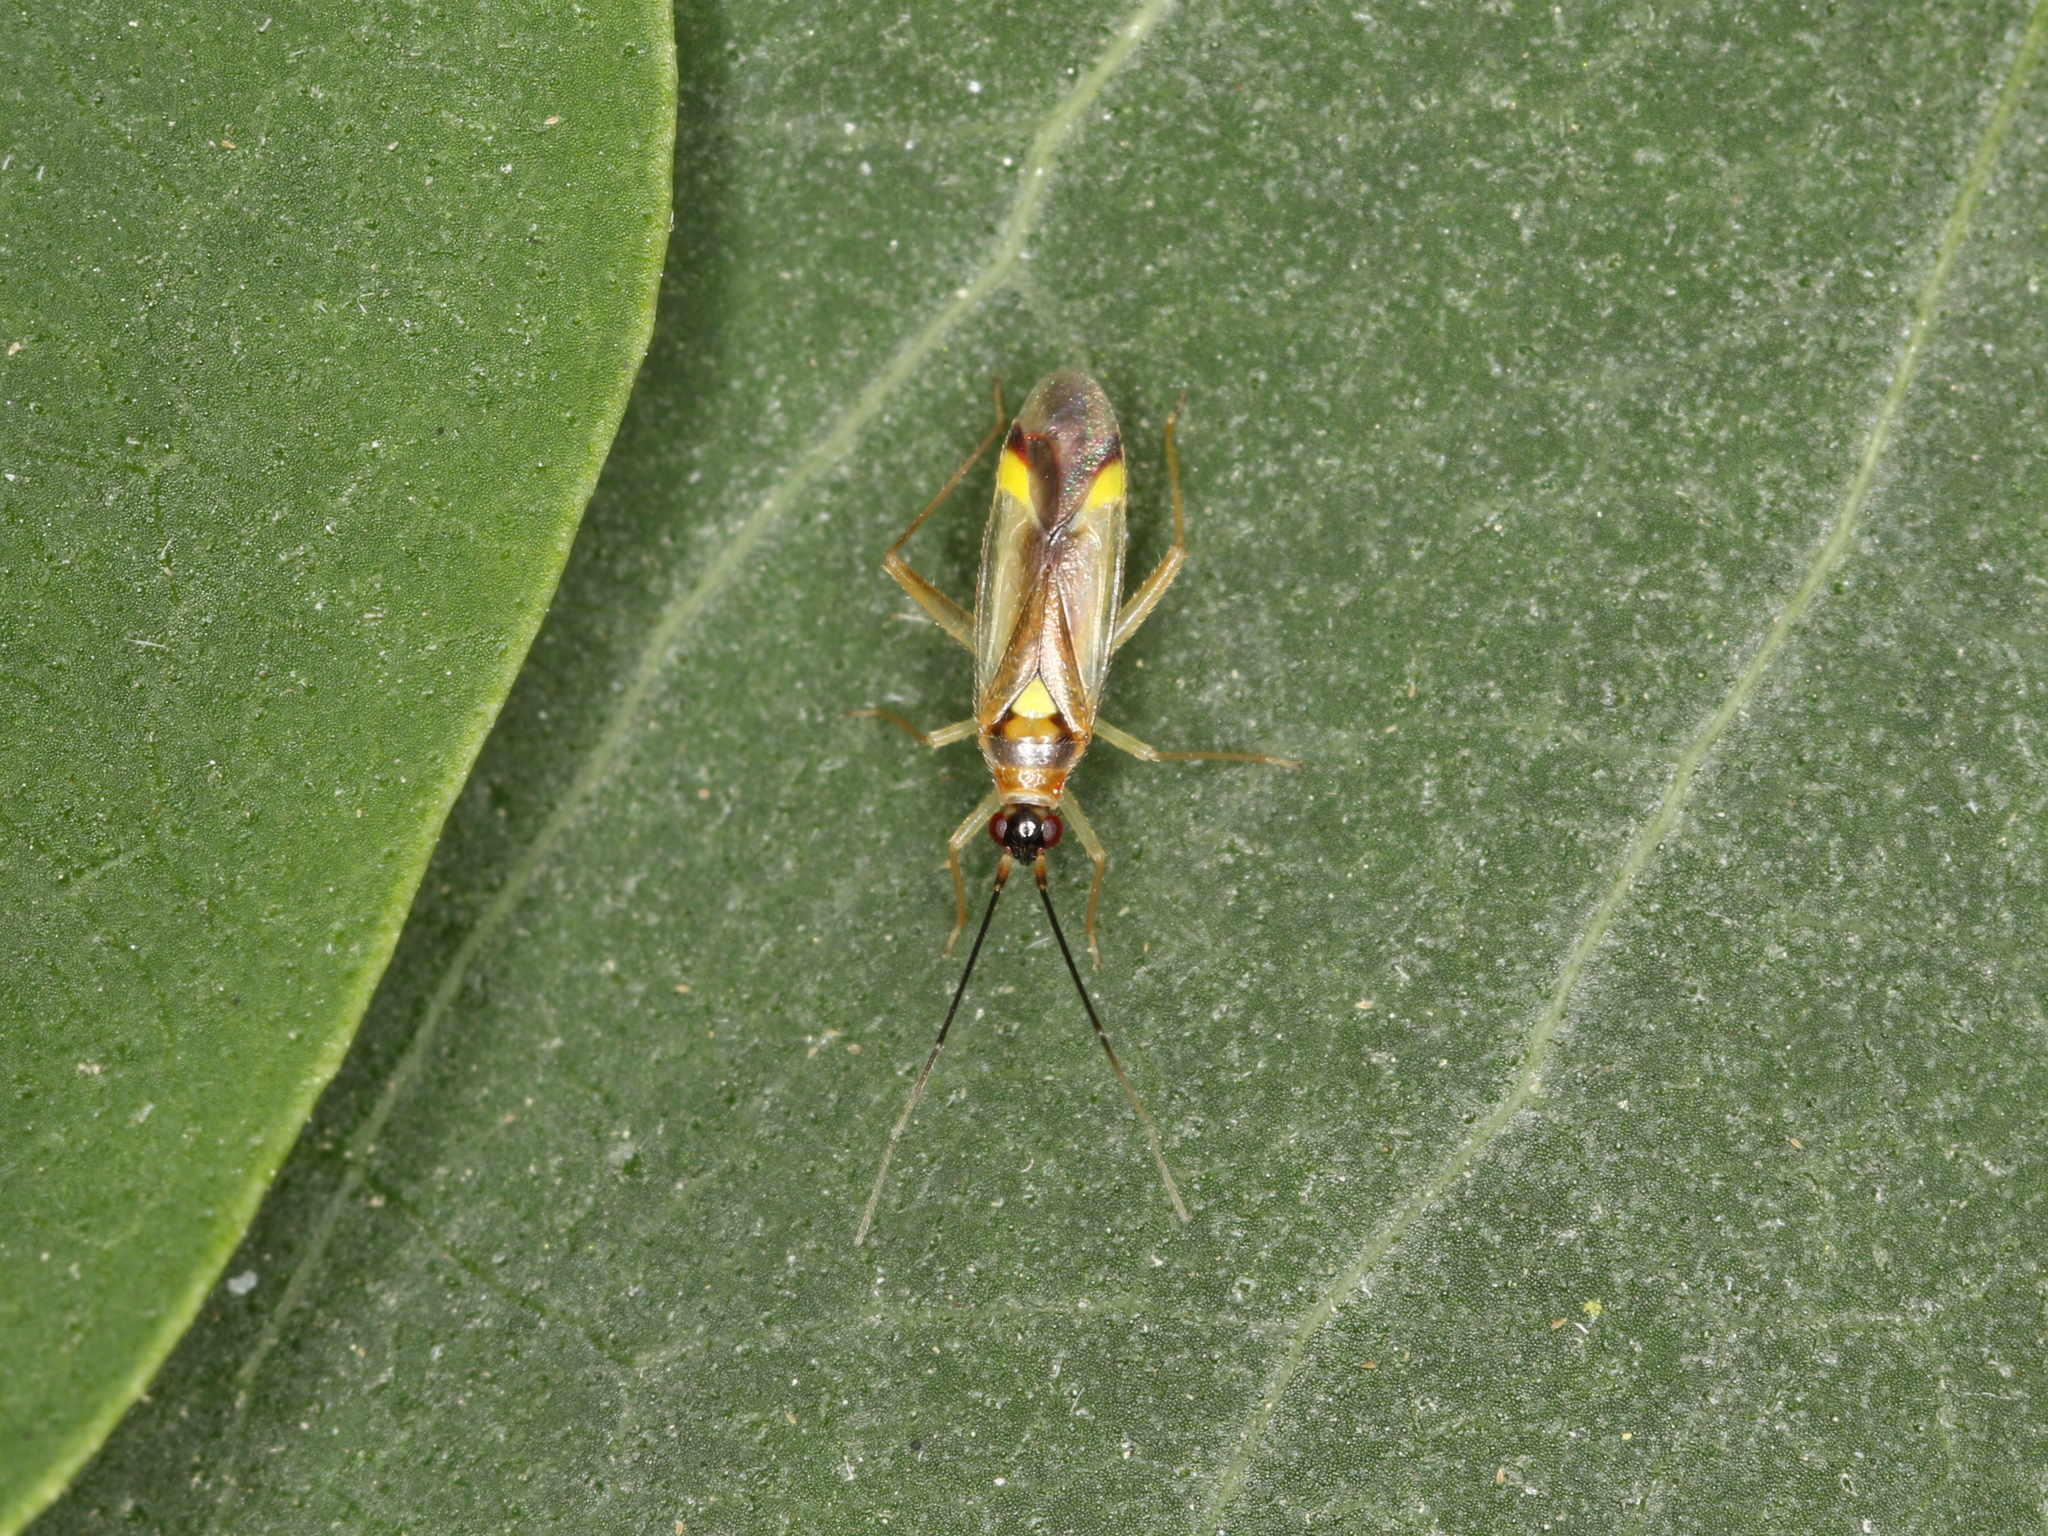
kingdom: Animalia
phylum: Arthropoda
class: Insecta
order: Hemiptera
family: Miridae
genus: Campyloneura
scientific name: Campyloneura virgula
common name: Predatory bug
